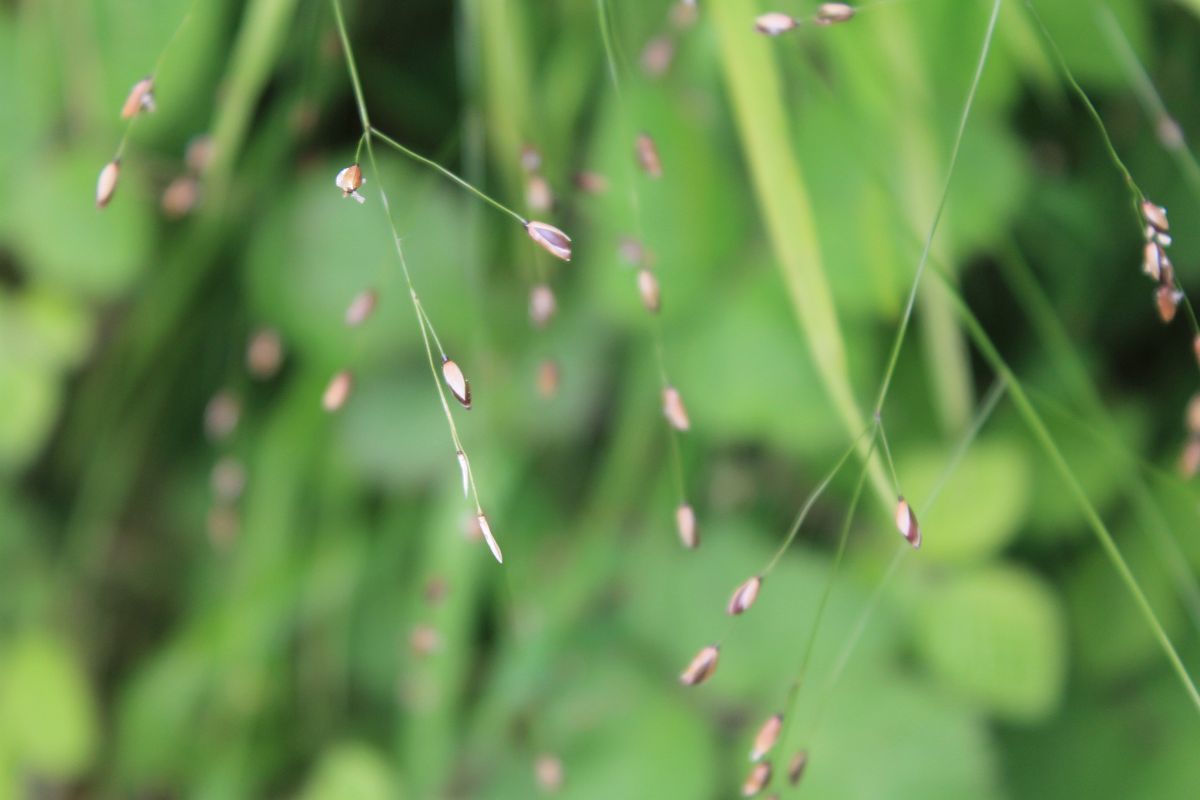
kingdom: Plantae
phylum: Tracheophyta
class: Liliopsida
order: Poales
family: Poaceae
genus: Melica
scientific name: Melica uniflora
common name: Wood melick
